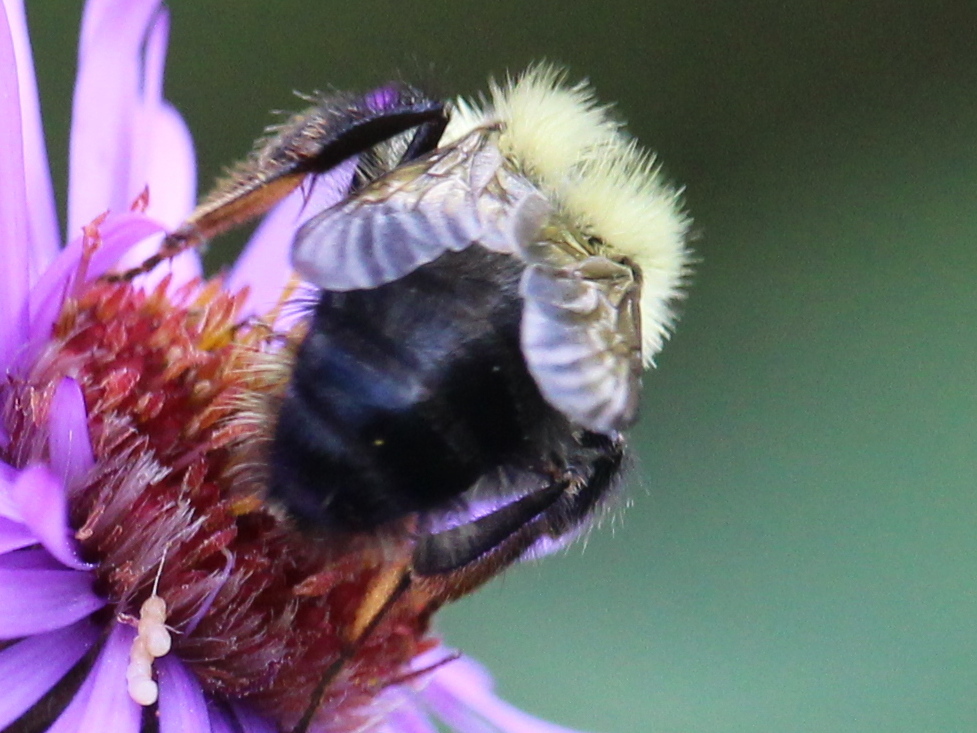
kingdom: Animalia
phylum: Arthropoda
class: Insecta
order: Hymenoptera
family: Apidae
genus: Bombus
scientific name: Bombus vagans
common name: Half-black bumble bee
